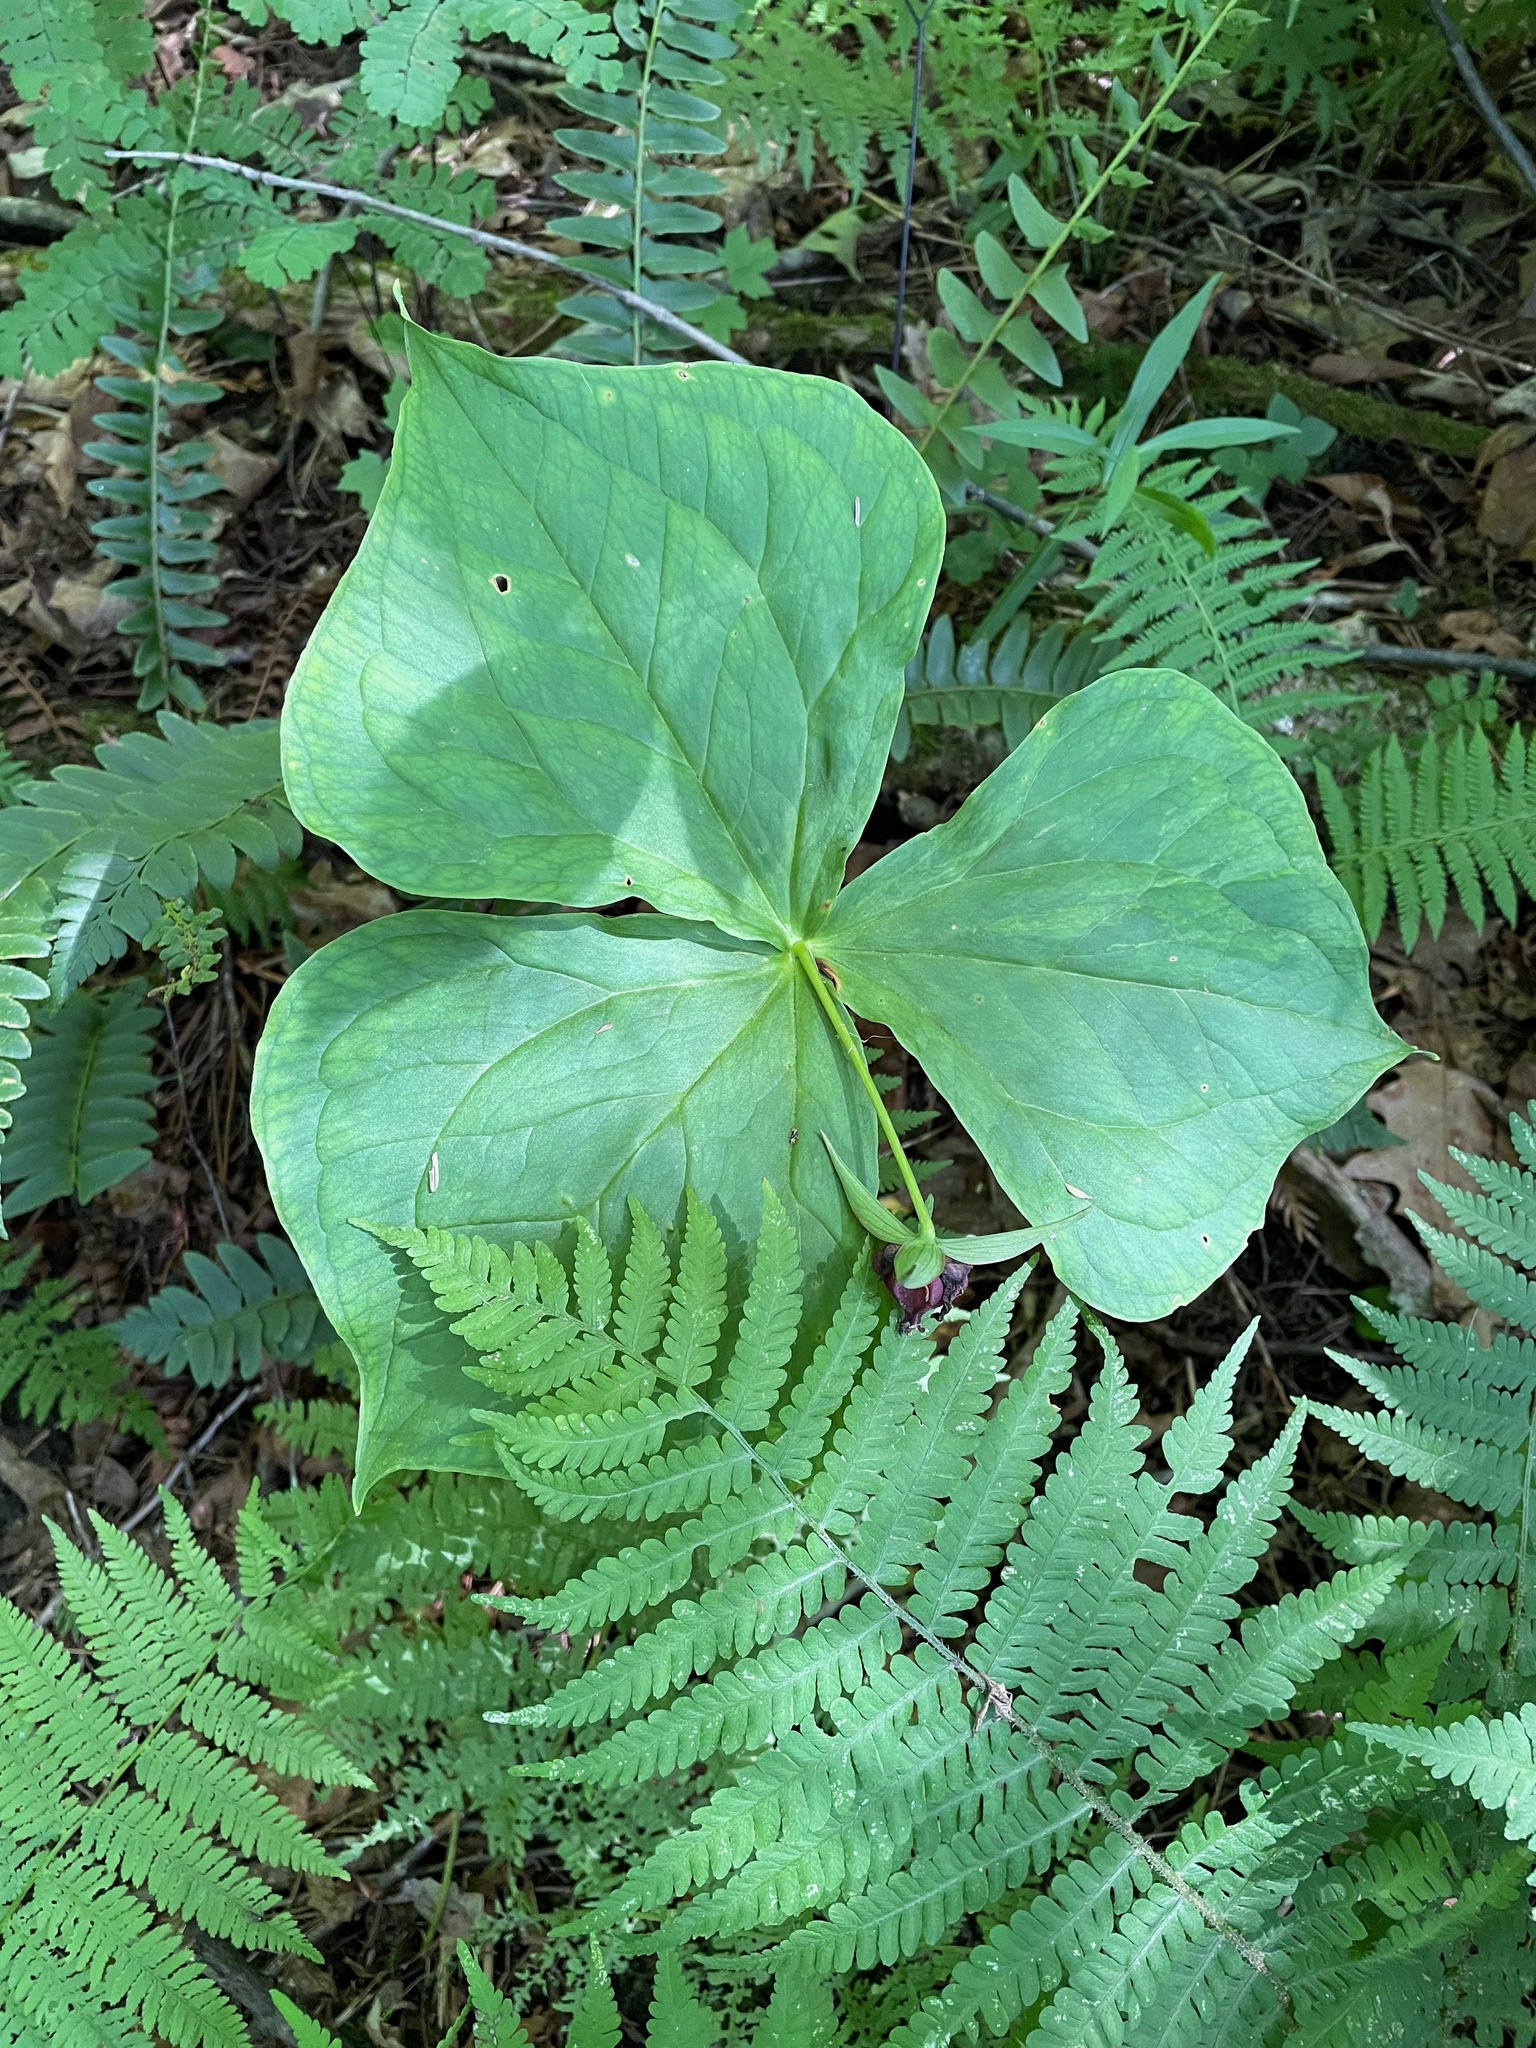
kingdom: Plantae
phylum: Tracheophyta
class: Liliopsida
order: Liliales
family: Melanthiaceae
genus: Trillium
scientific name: Trillium erectum
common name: Purple trillium
